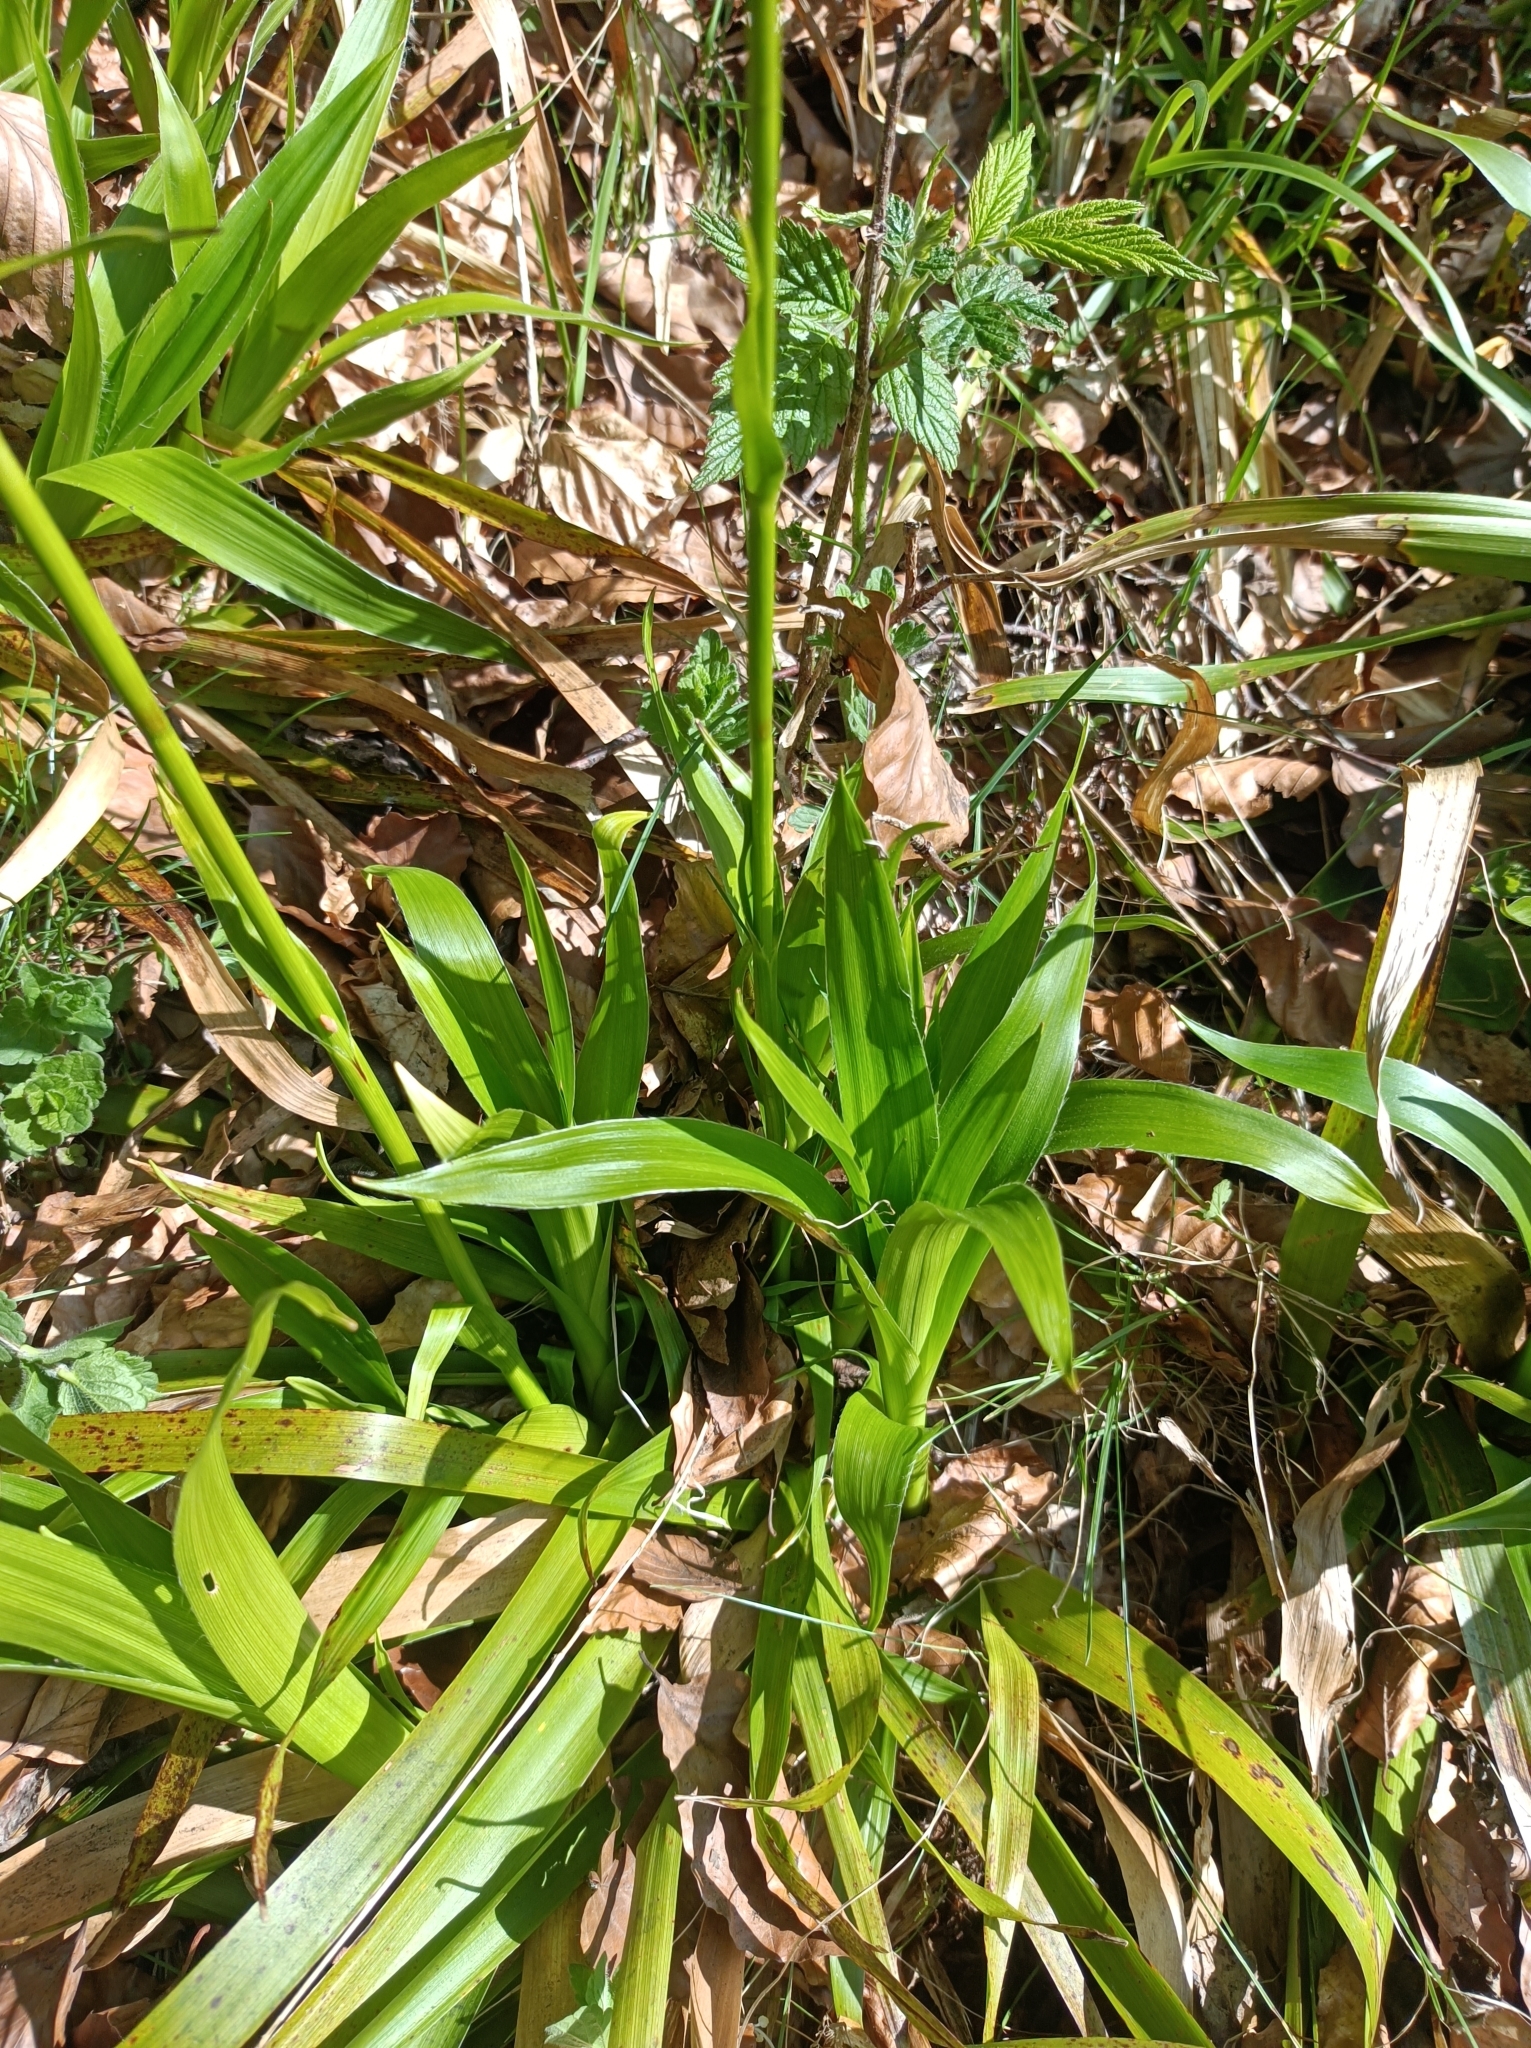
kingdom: Plantae
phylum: Tracheophyta
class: Liliopsida
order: Poales
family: Juncaceae
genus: Luzula
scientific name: Luzula sylvatica
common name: Great wood-rush
